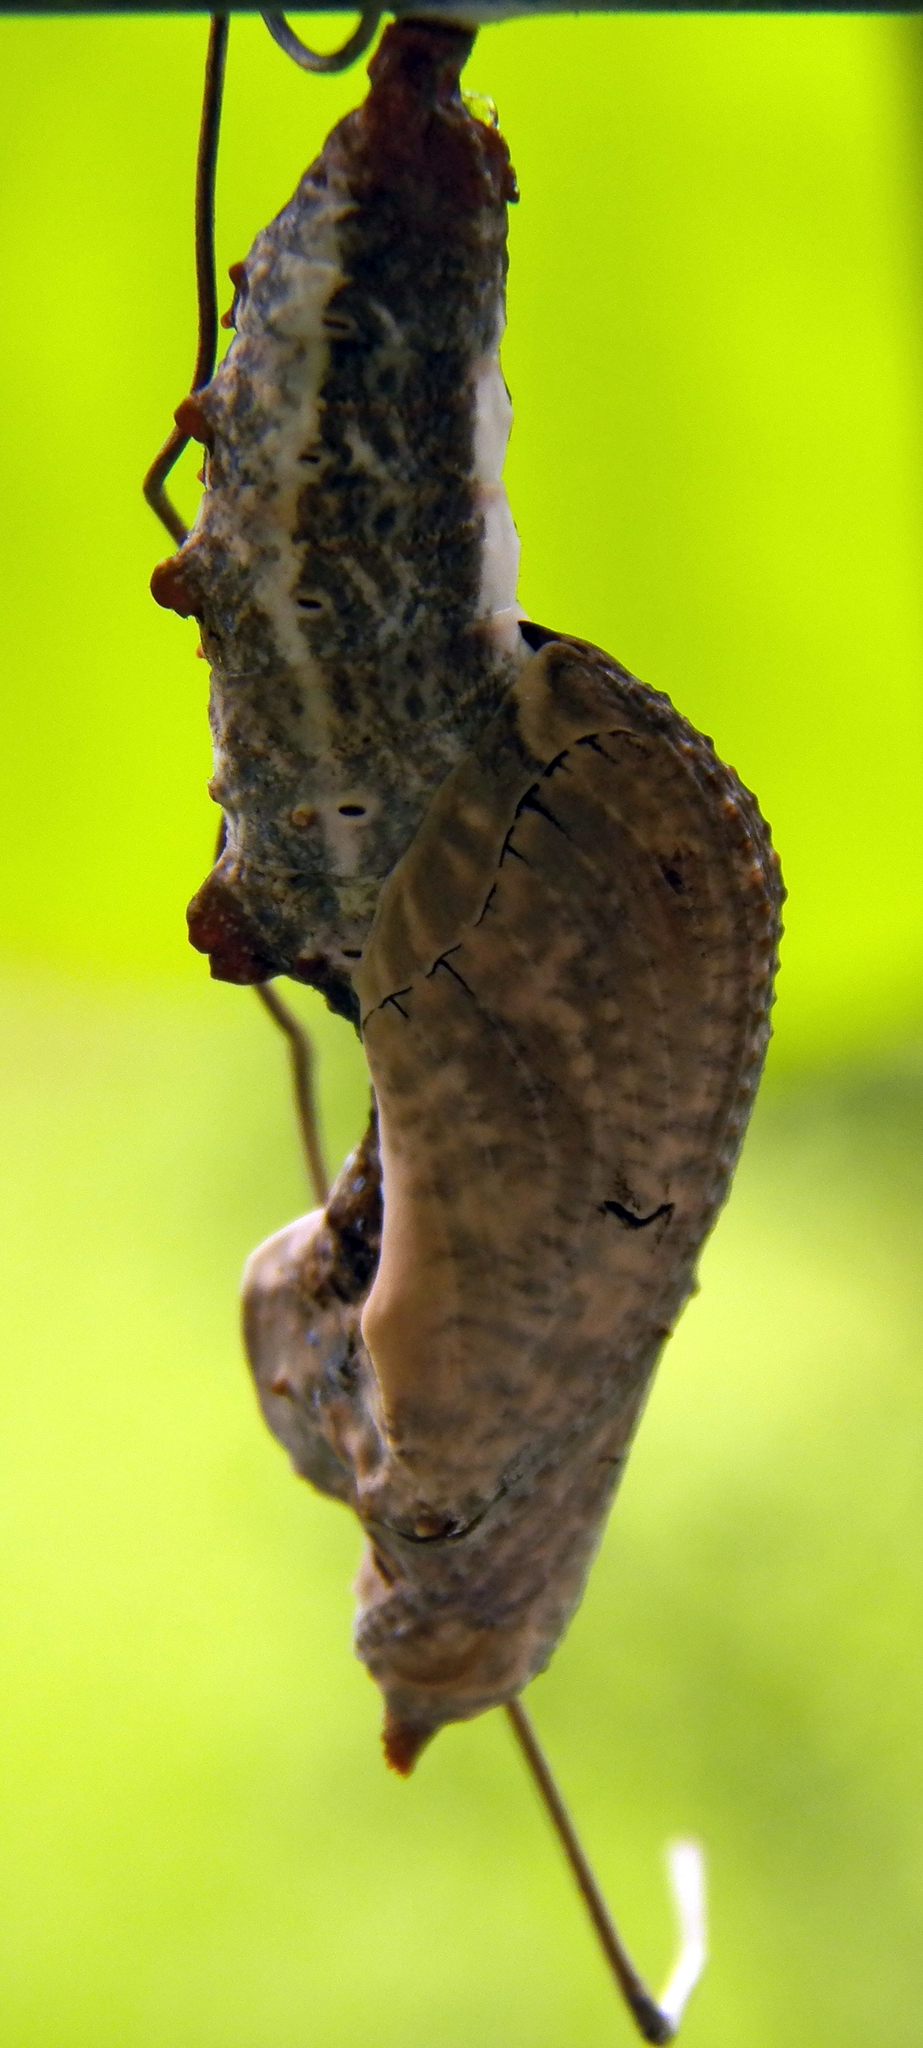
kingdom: Animalia
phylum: Arthropoda
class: Insecta
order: Lepidoptera
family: Nymphalidae
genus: Dione
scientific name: Dione vanillae
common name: Gulf fritillary
